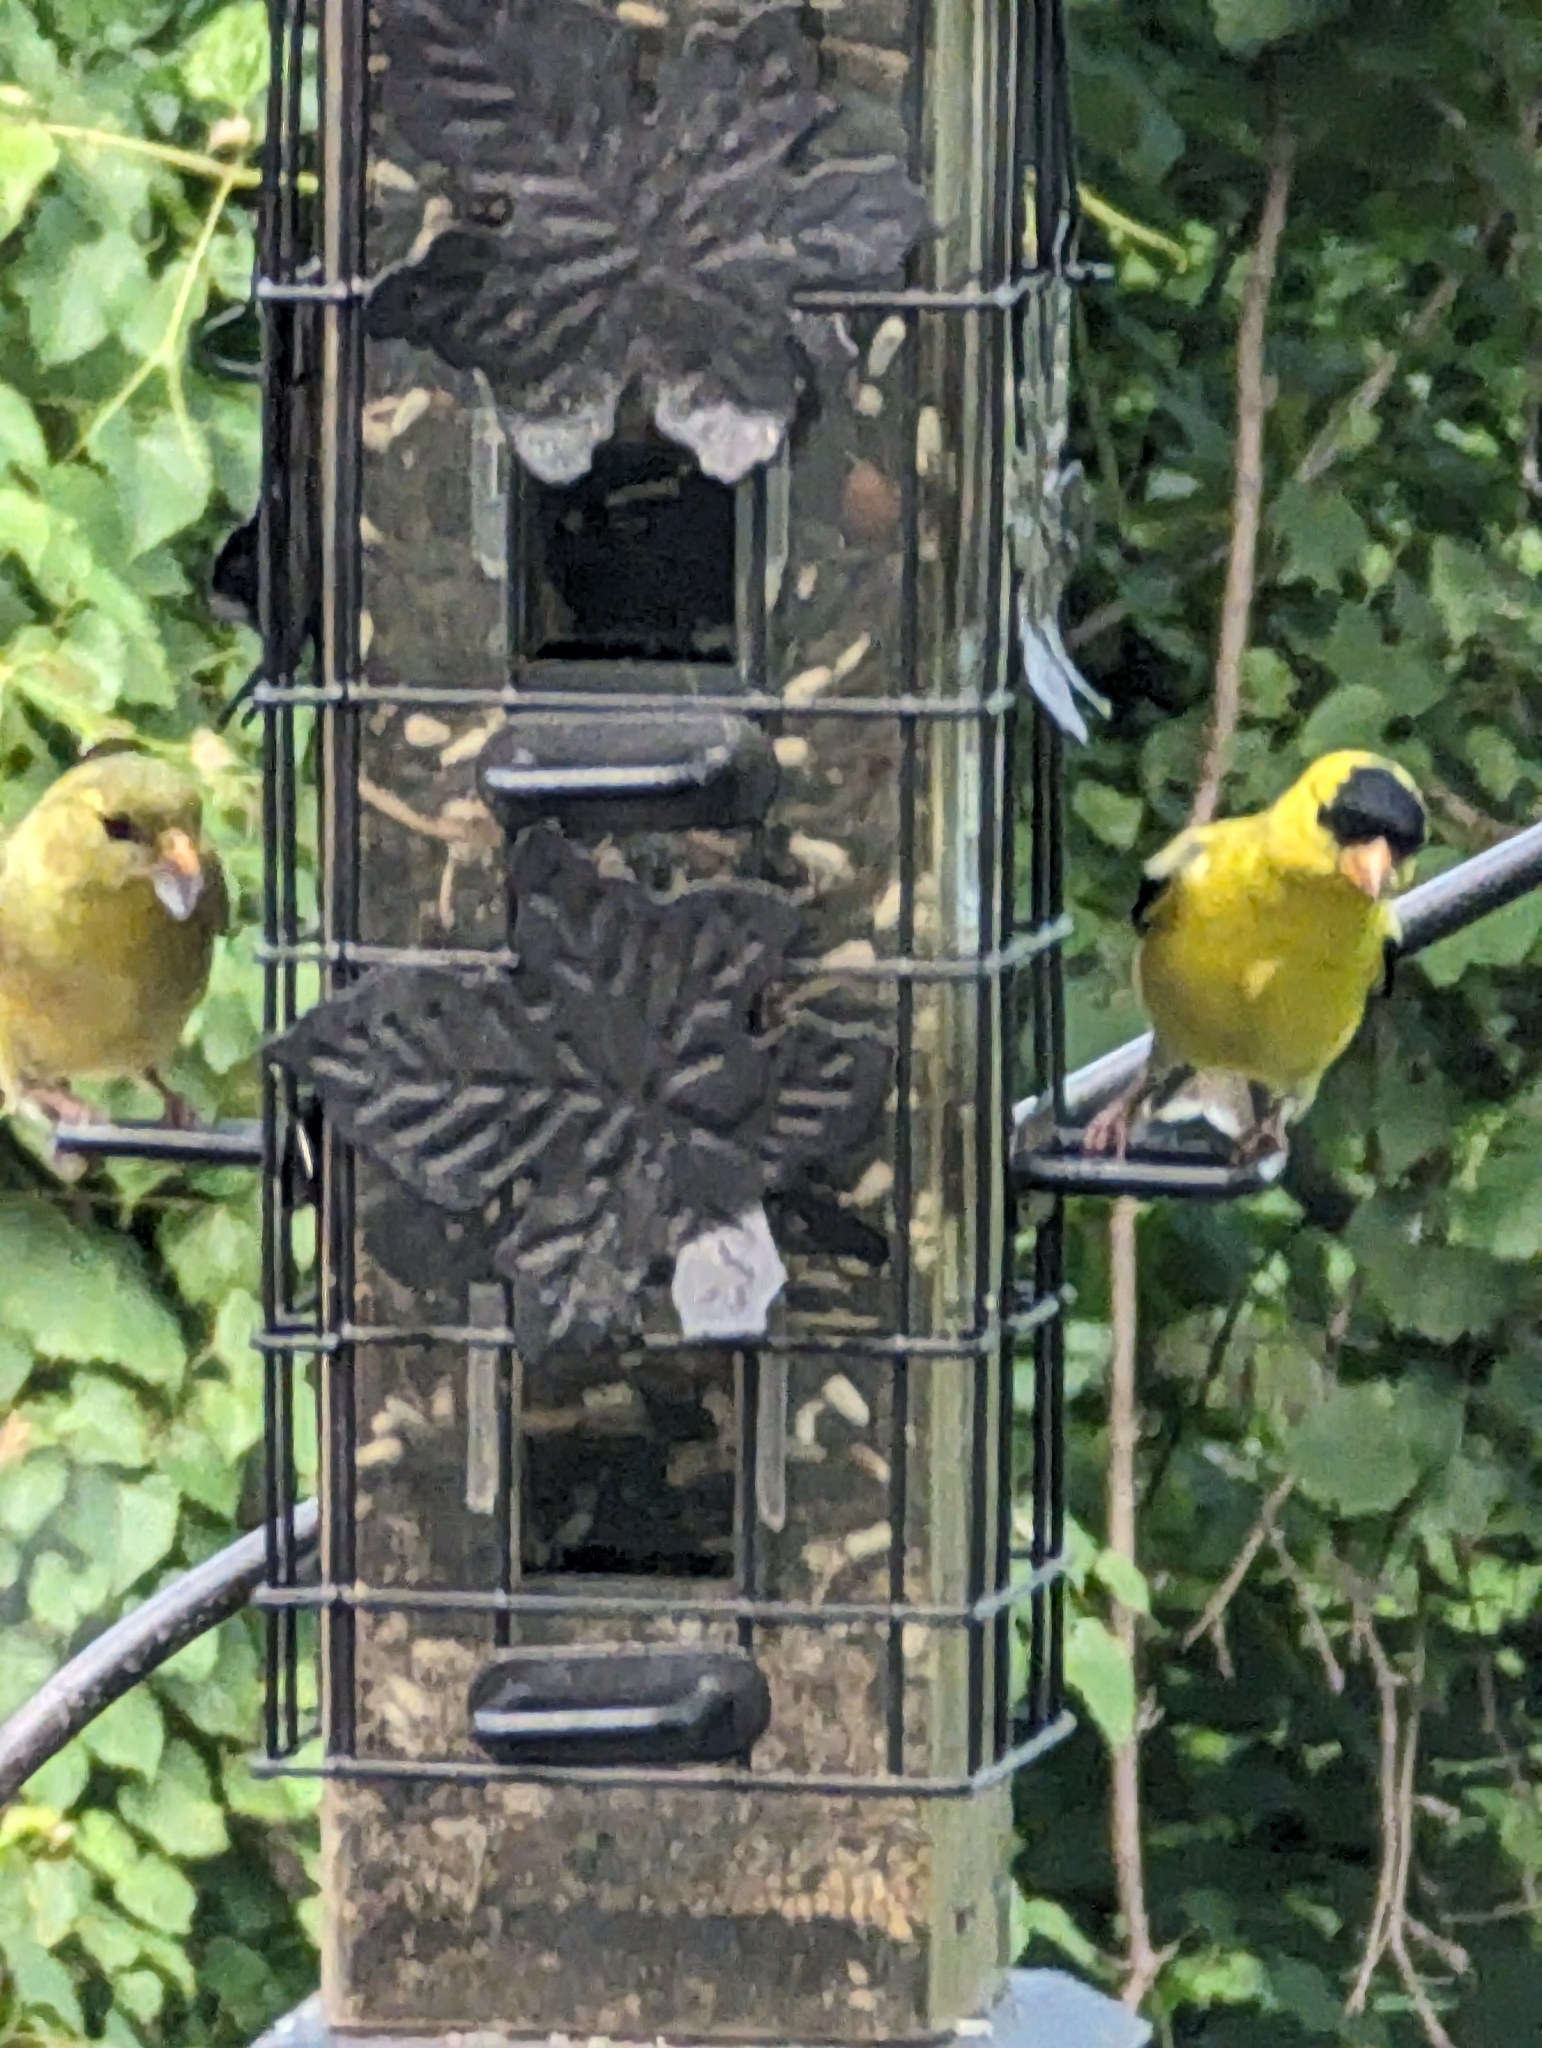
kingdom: Animalia
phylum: Chordata
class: Aves
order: Passeriformes
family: Fringillidae
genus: Spinus
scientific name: Spinus tristis
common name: American goldfinch
